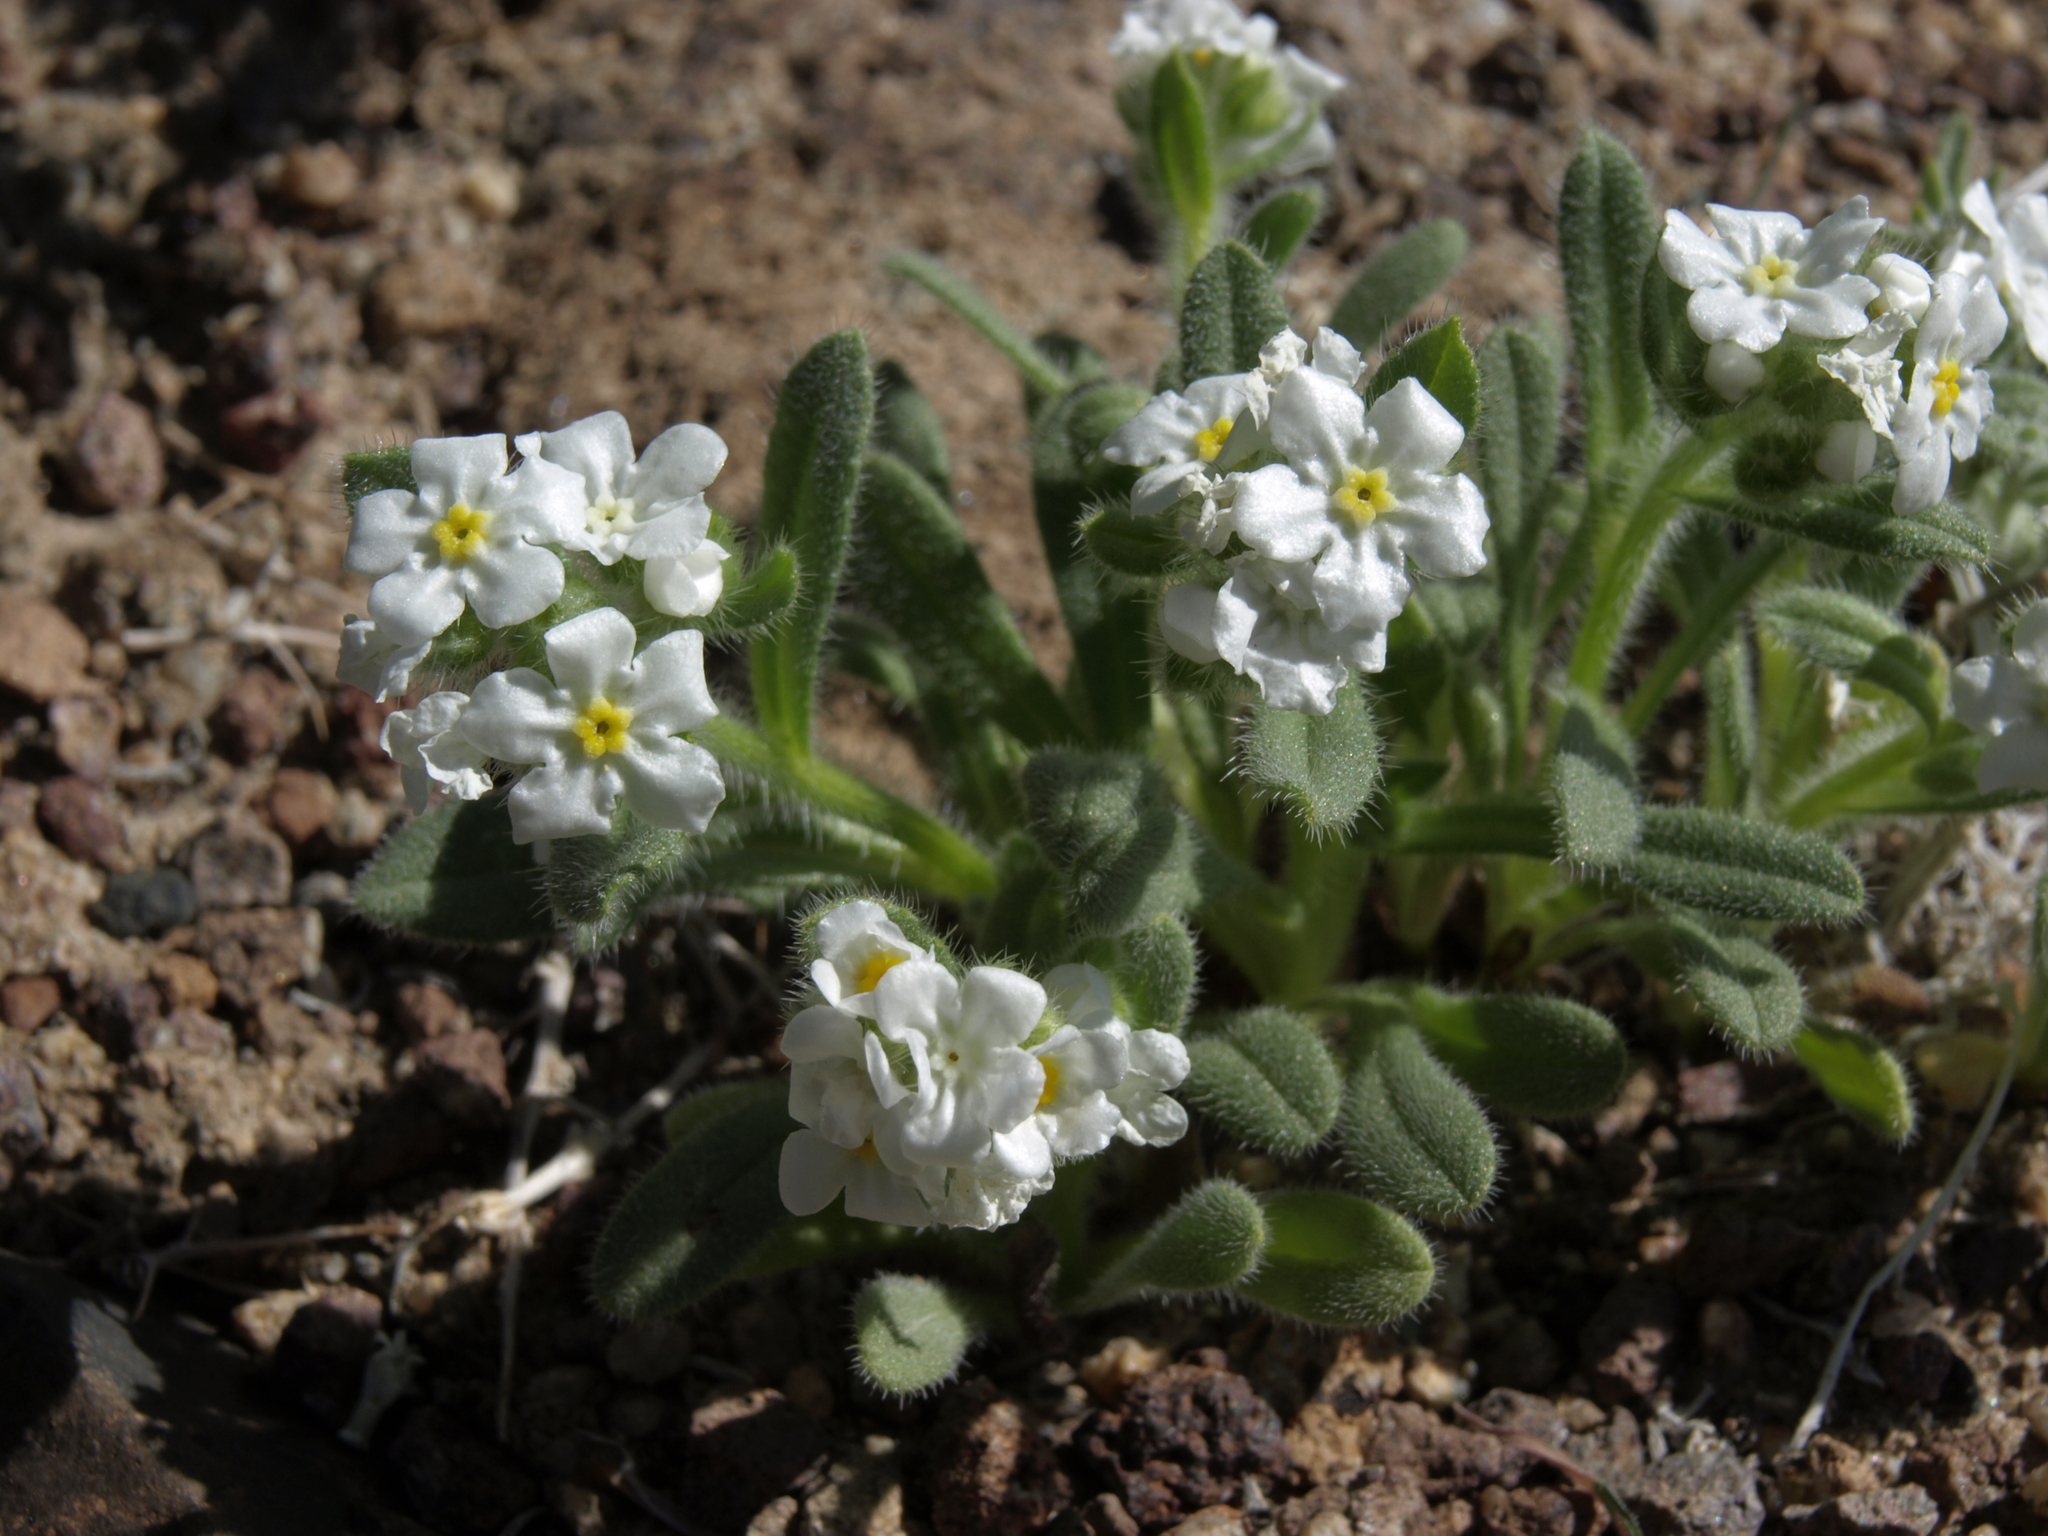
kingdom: Plantae
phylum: Tracheophyta
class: Magnoliopsida
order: Boraginales
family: Boraginaceae
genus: Amsinckiopsis
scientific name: Amsinckiopsis kingii
